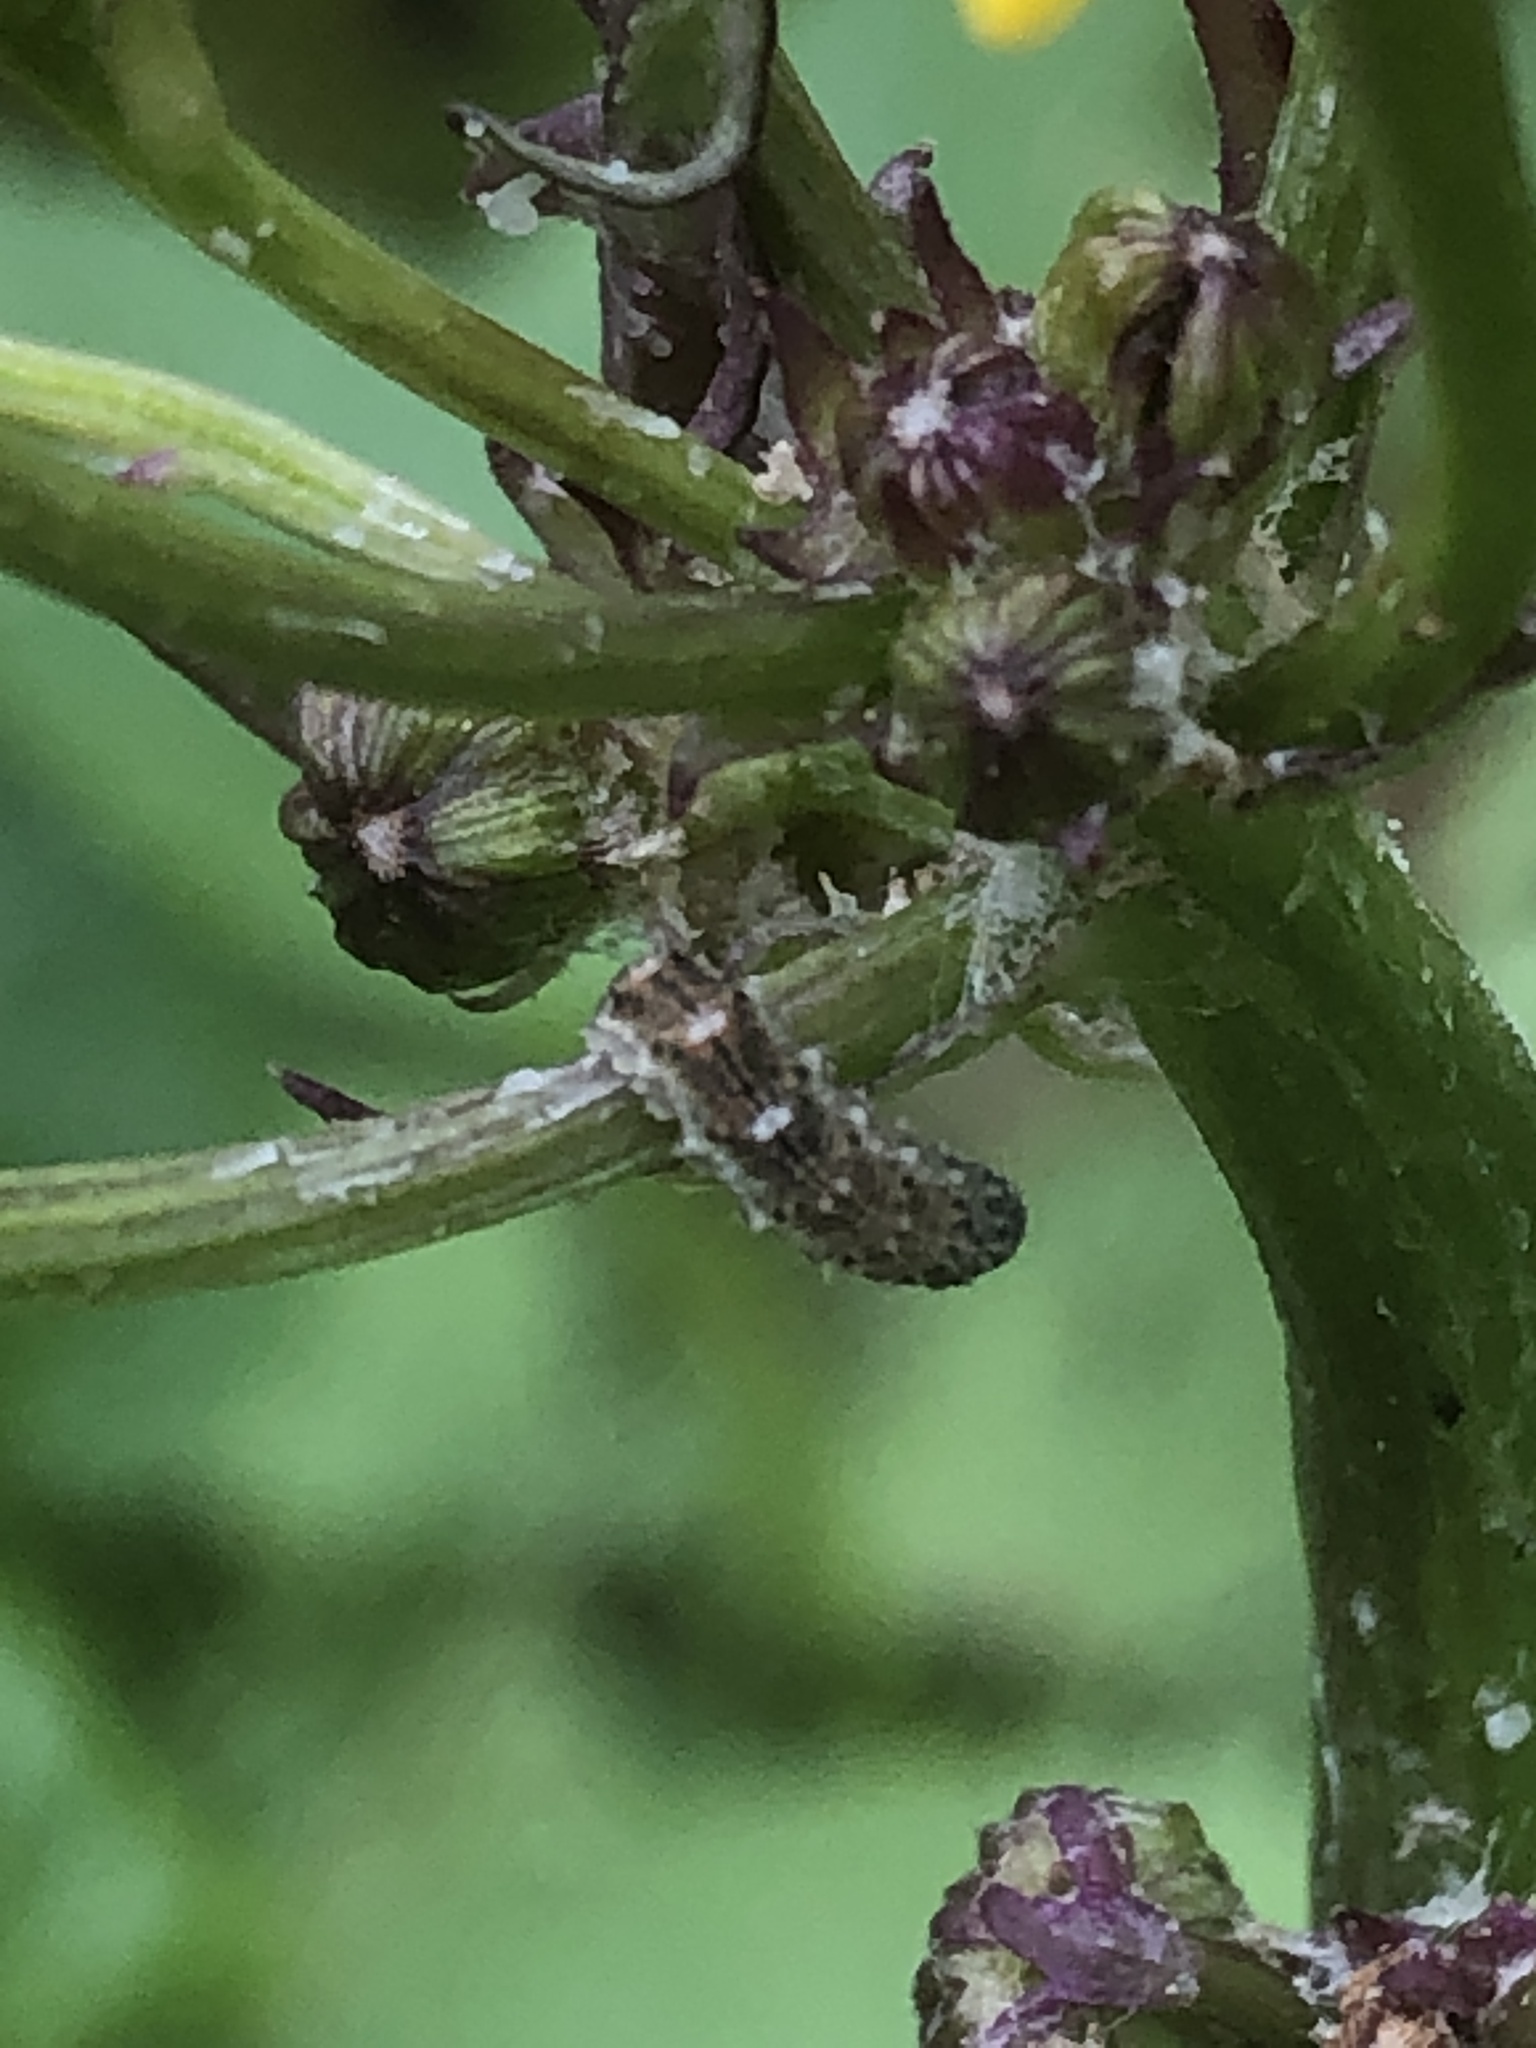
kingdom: Animalia
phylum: Arthropoda
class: Insecta
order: Diptera
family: Syrphidae
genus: Eupeodes
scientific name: Eupeodes americanus
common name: Long-tailed aphideater
